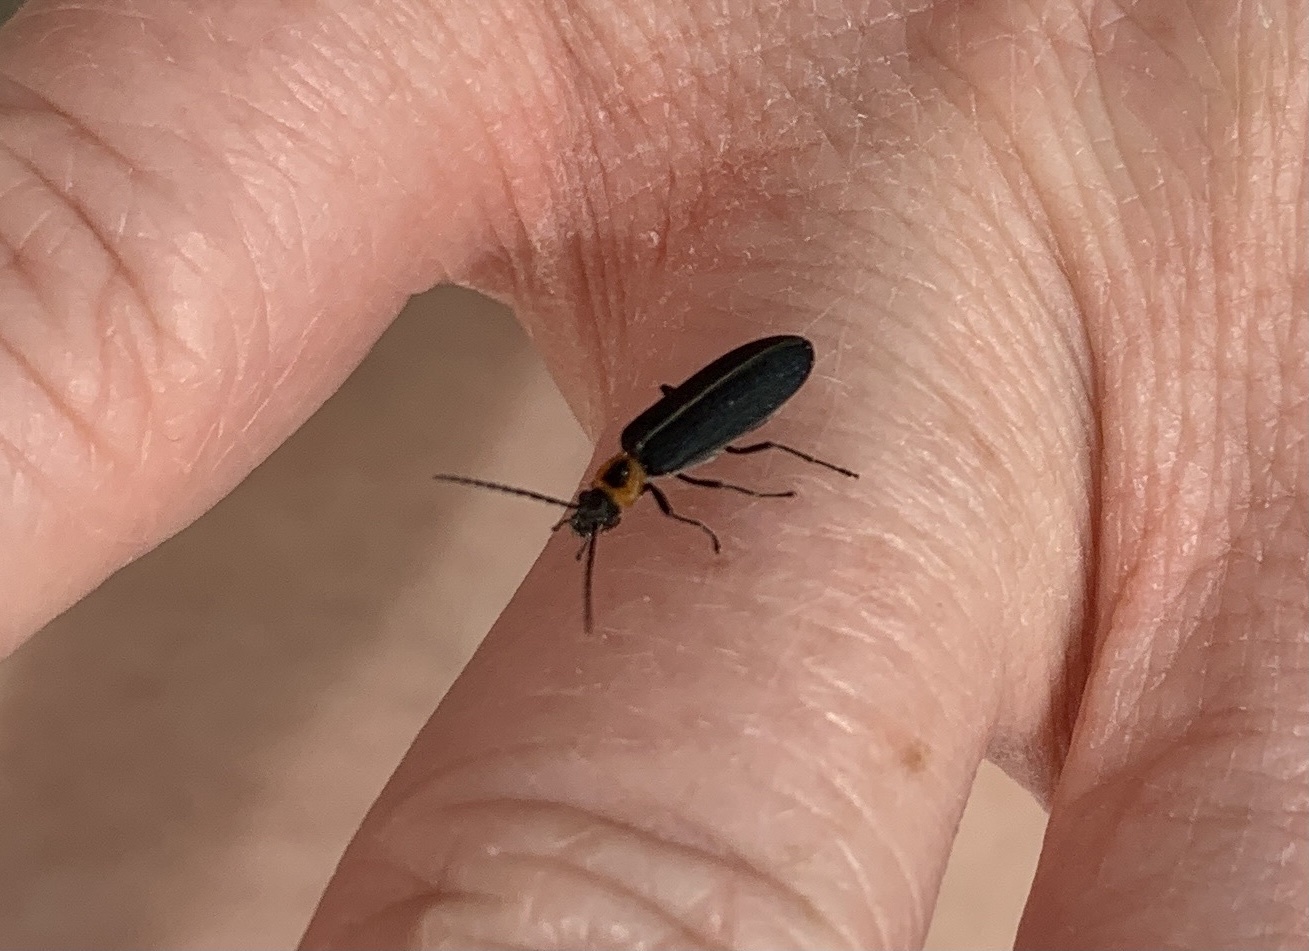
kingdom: Animalia
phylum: Arthropoda
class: Insecta
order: Coleoptera
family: Oedemeridae
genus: Ischnomera
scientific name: Ischnomera
